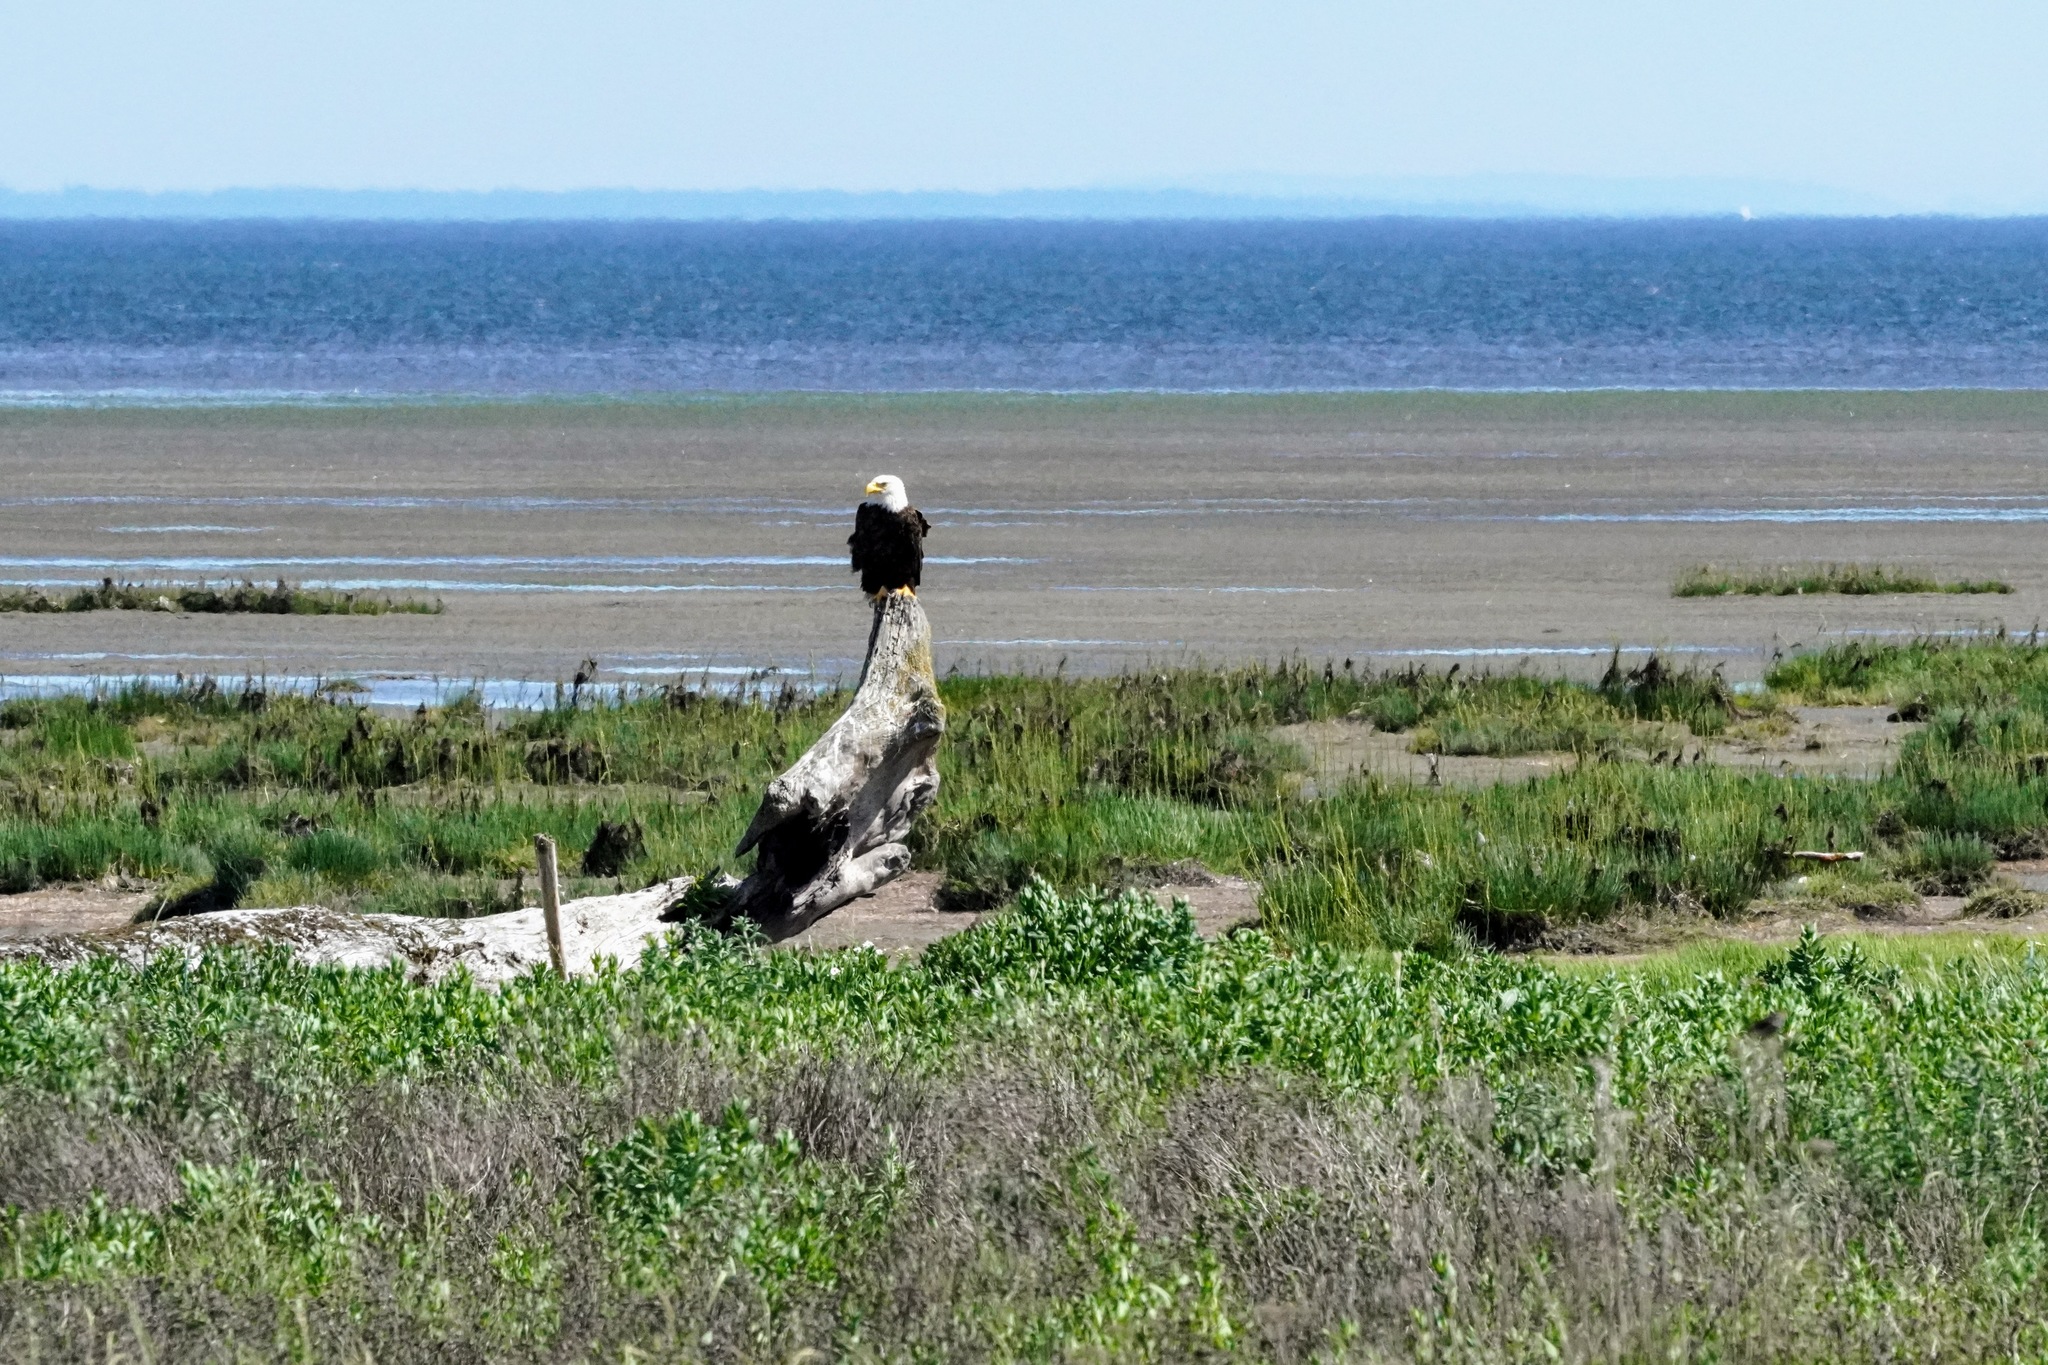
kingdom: Animalia
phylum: Chordata
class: Aves
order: Accipitriformes
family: Accipitridae
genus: Haliaeetus
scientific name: Haliaeetus leucocephalus
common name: Bald eagle
